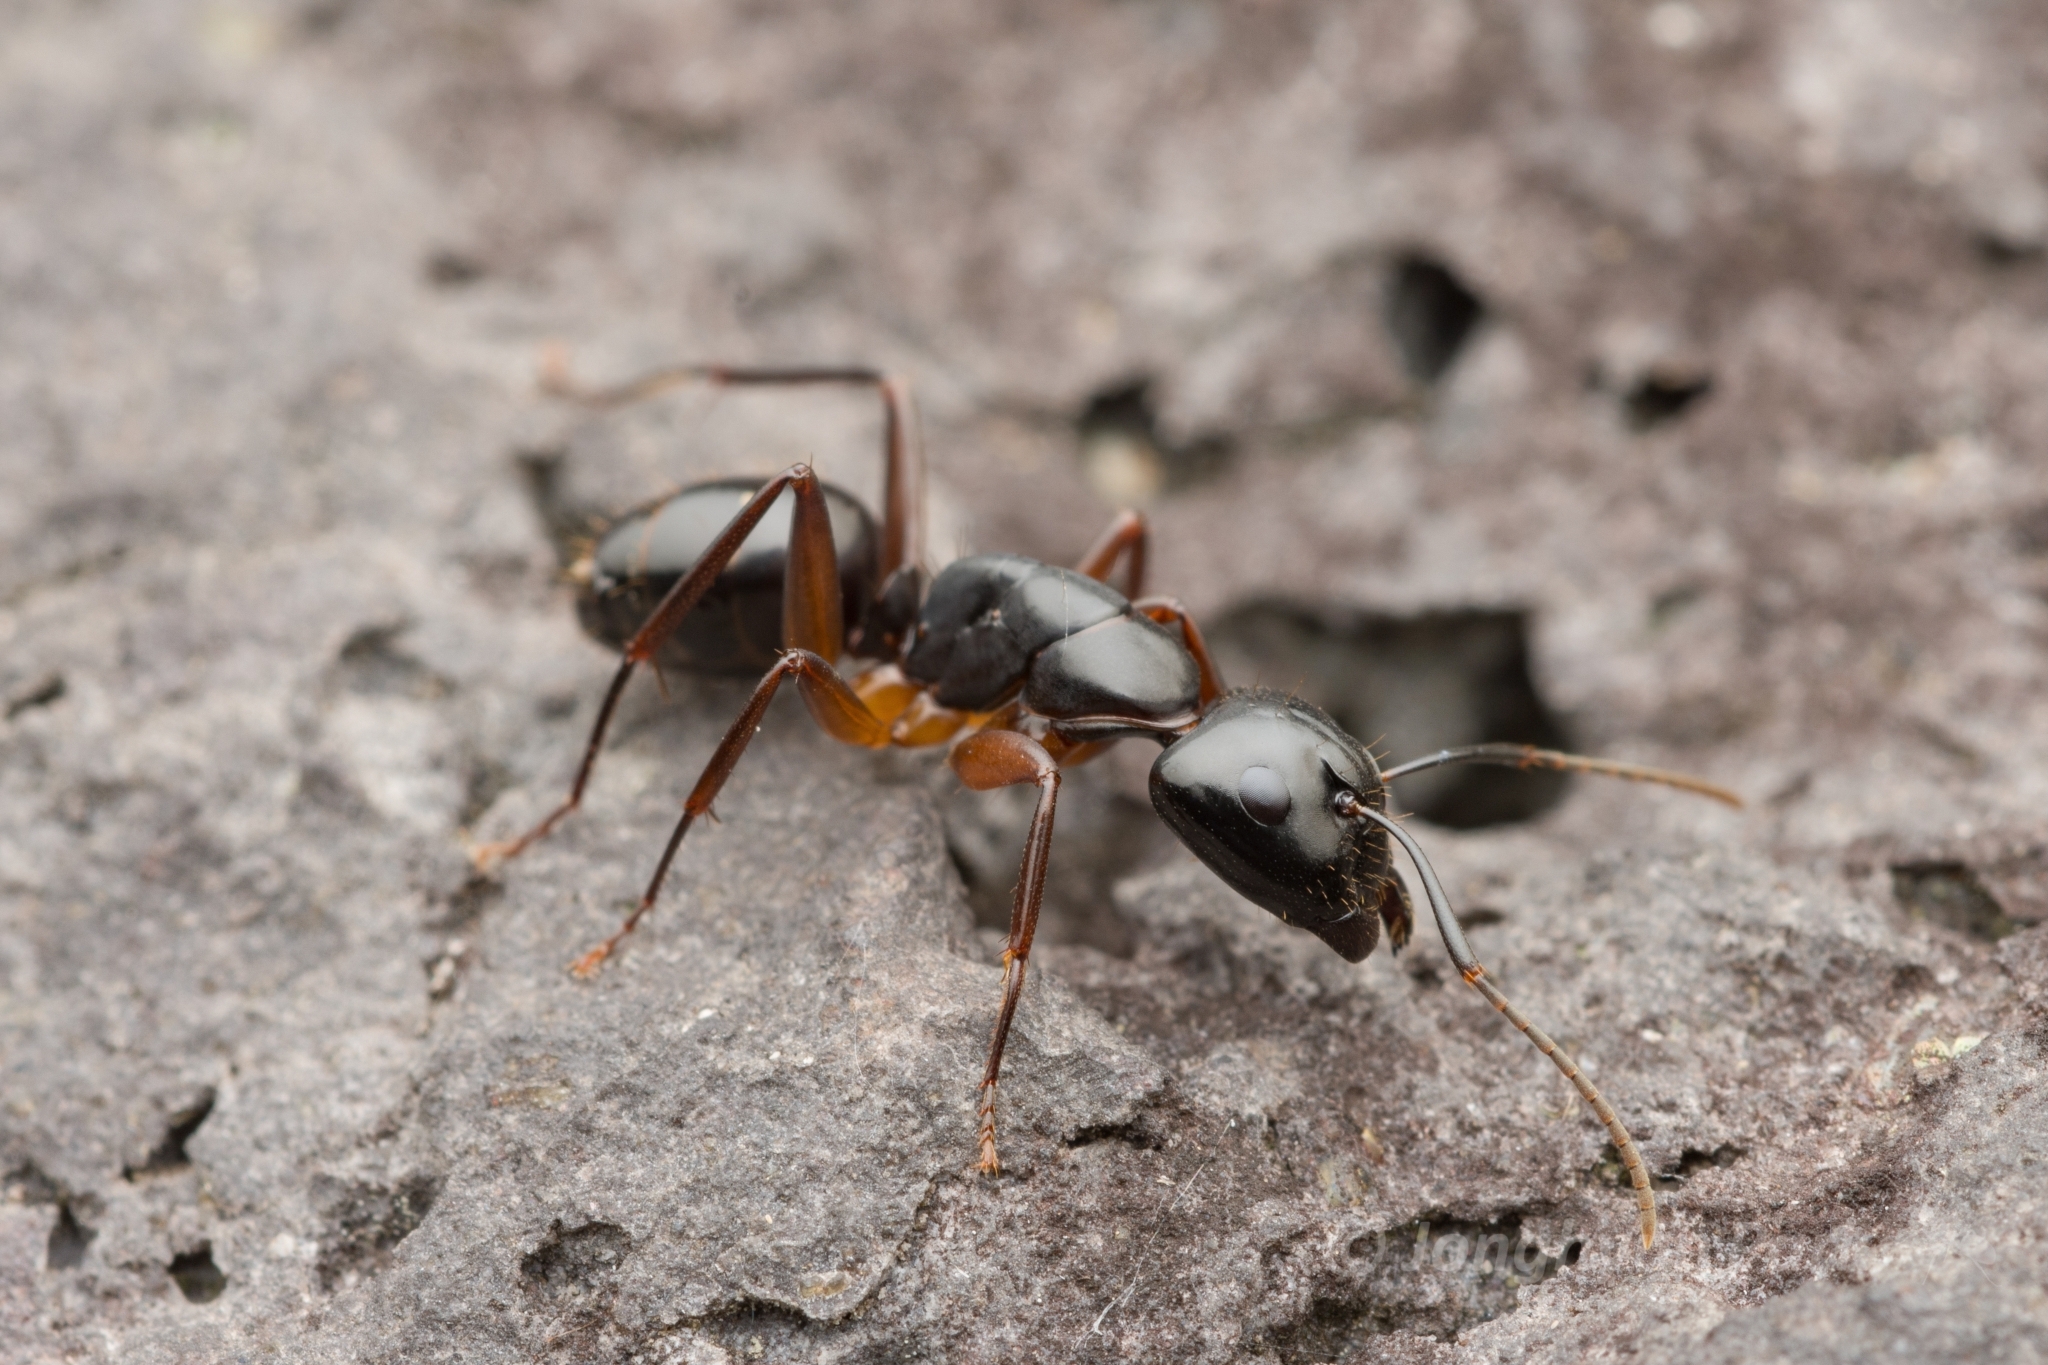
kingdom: Animalia
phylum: Arthropoda
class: Insecta
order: Hymenoptera
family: Formicidae
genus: Camponotus
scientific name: Camponotus kiusiuensis
